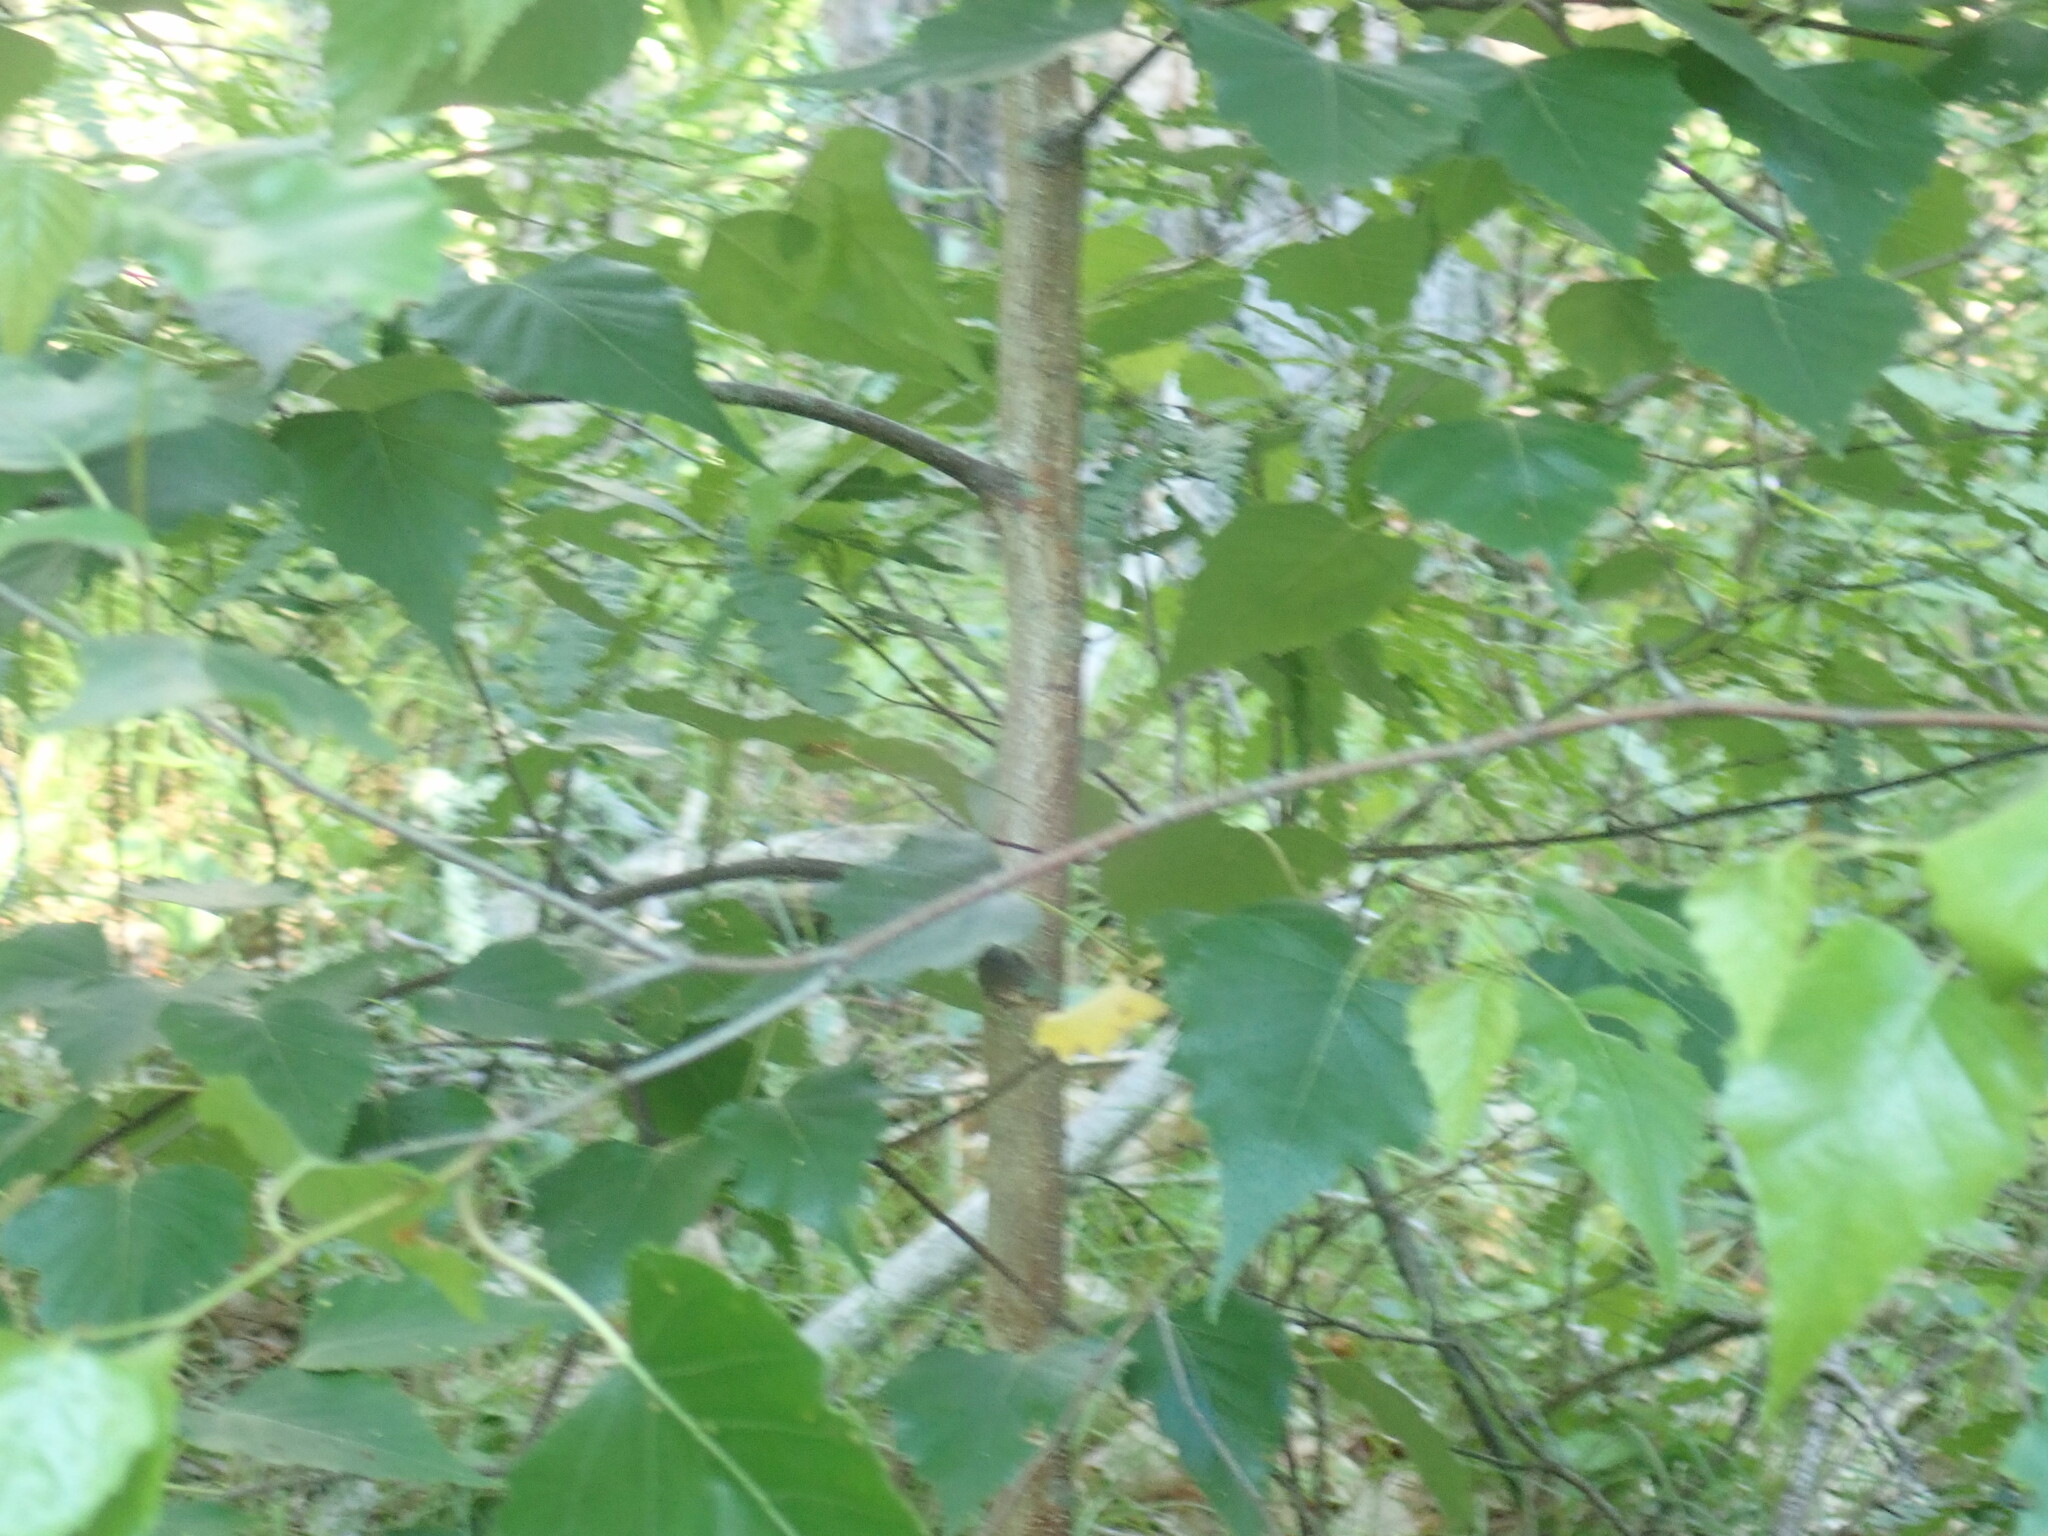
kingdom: Plantae
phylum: Tracheophyta
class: Magnoliopsida
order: Fagales
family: Betulaceae
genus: Betula
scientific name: Betula populifolia
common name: Fire birch
